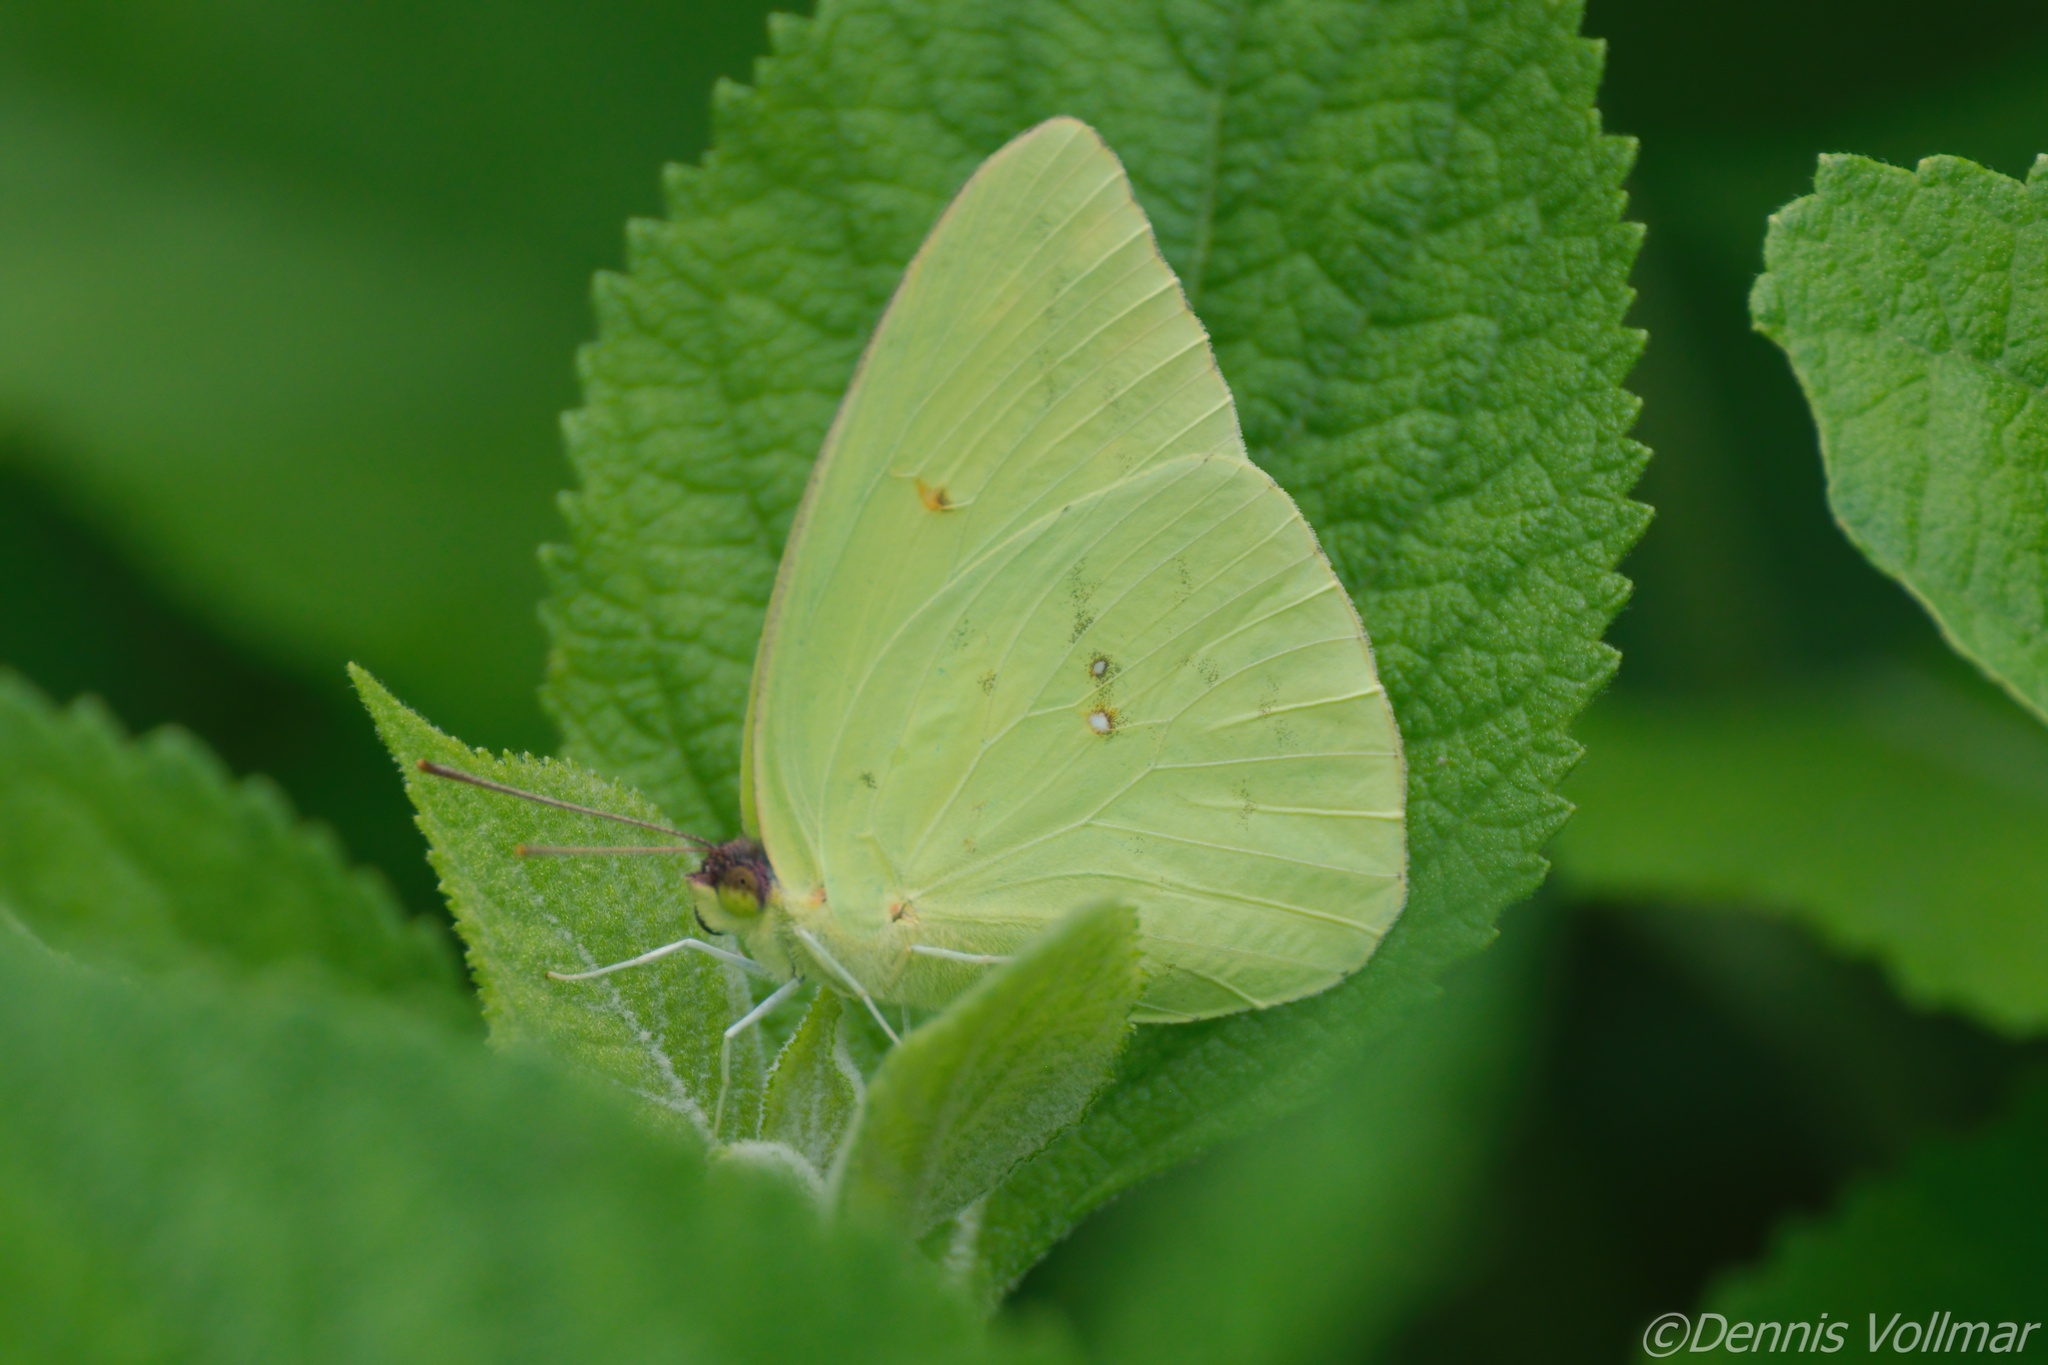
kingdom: Animalia
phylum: Arthropoda
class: Insecta
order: Lepidoptera
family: Pieridae
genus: Phoebis
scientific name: Phoebis sennae
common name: Cloudless sulphur
